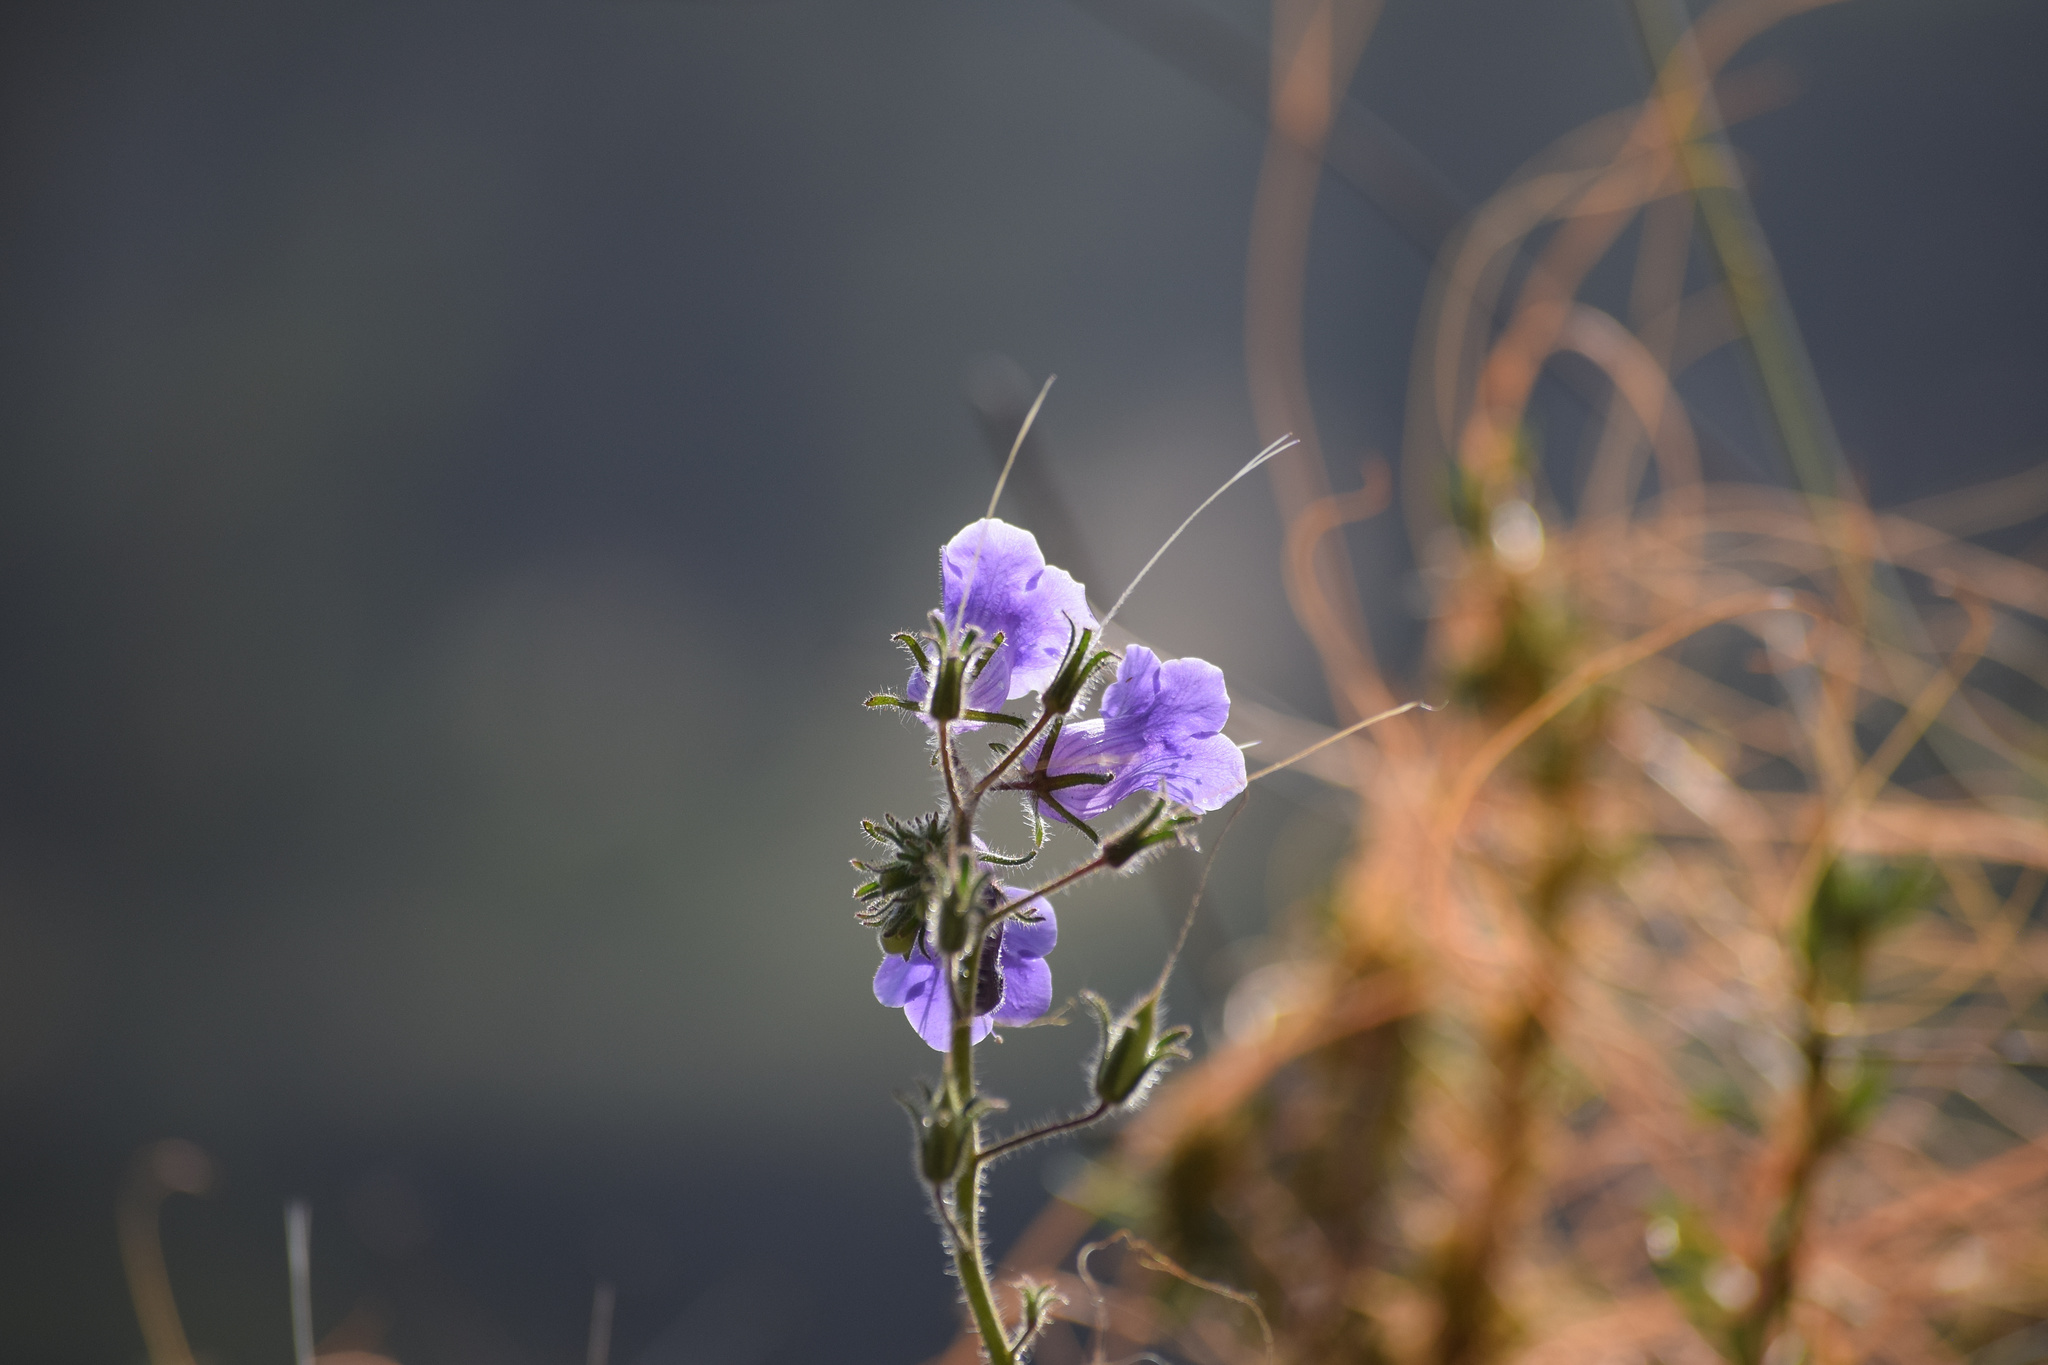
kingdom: Plantae
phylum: Tracheophyta
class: Magnoliopsida
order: Boraginales
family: Hydrophyllaceae
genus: Phacelia
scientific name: Phacelia minor
